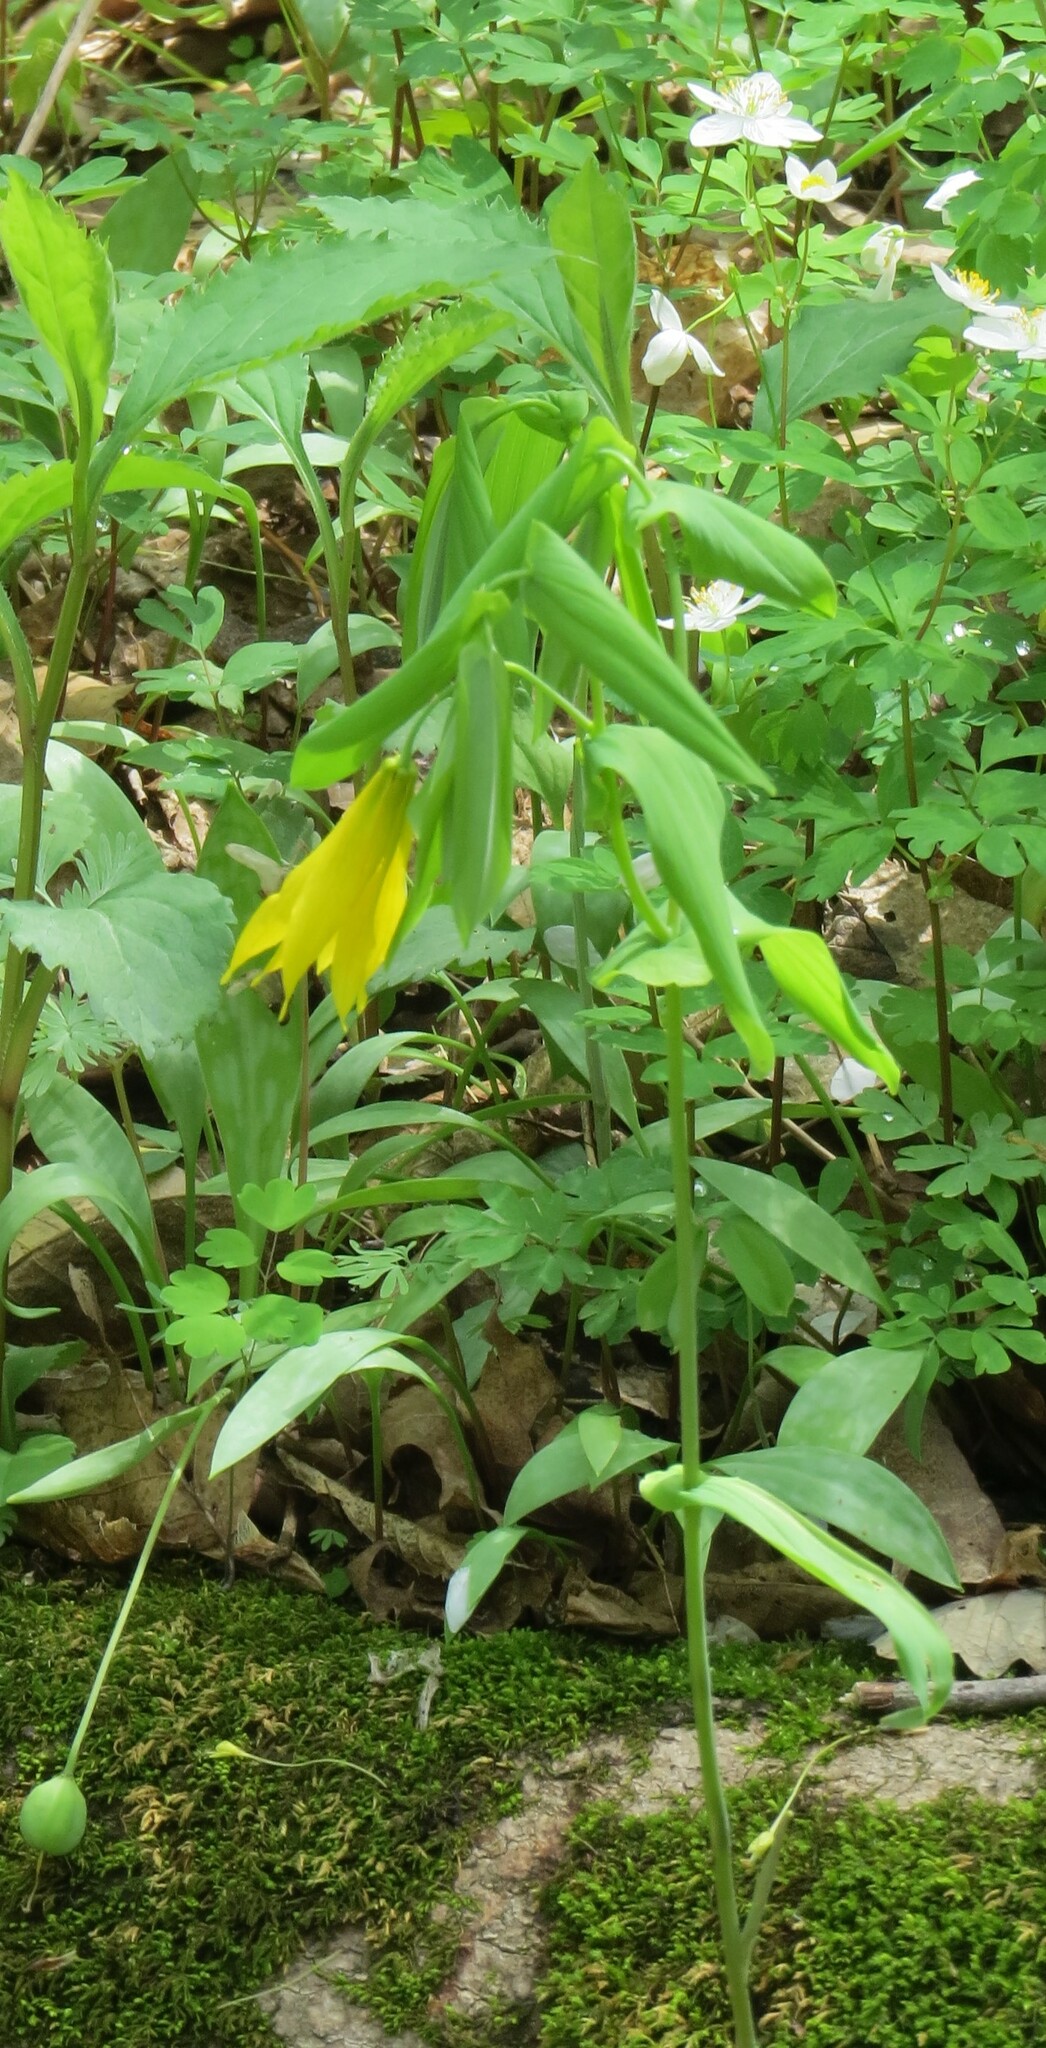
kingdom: Plantae
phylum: Tracheophyta
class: Liliopsida
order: Liliales
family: Colchicaceae
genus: Uvularia
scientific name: Uvularia grandiflora
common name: Bellwort
